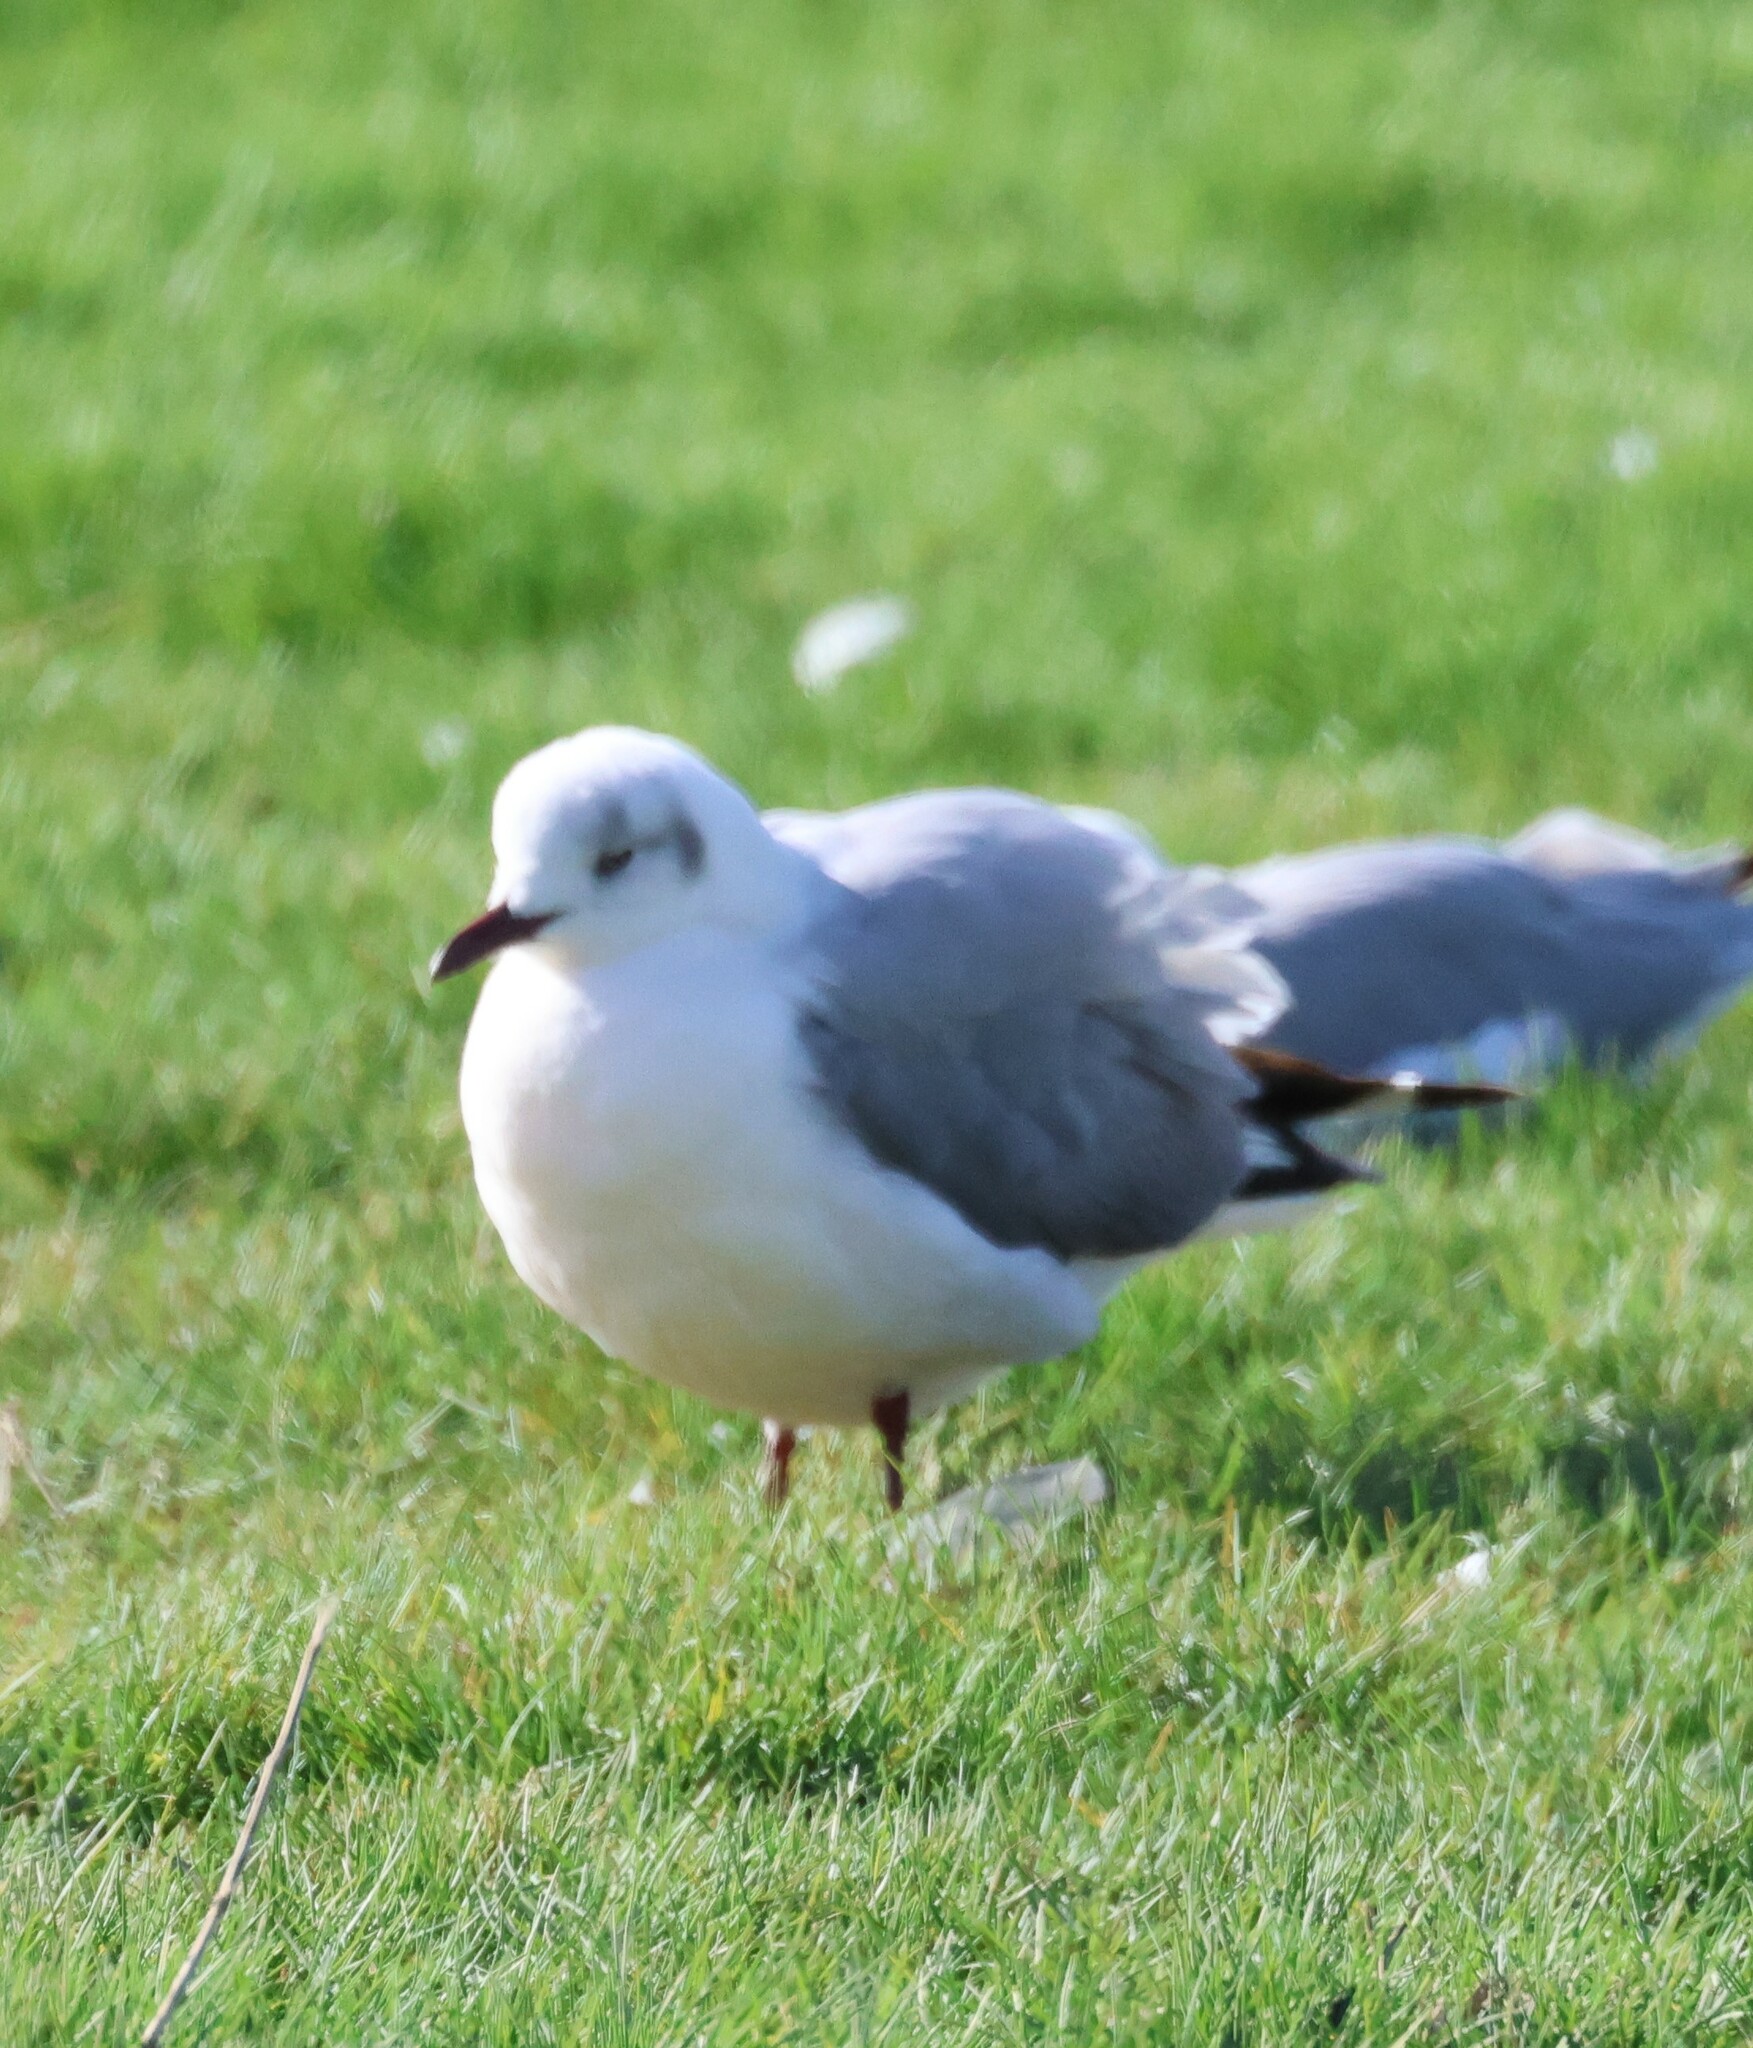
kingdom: Animalia
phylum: Chordata
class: Aves
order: Charadriiformes
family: Laridae
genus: Chroicocephalus
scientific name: Chroicocephalus hartlaubii
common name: Hartlaub's gull
